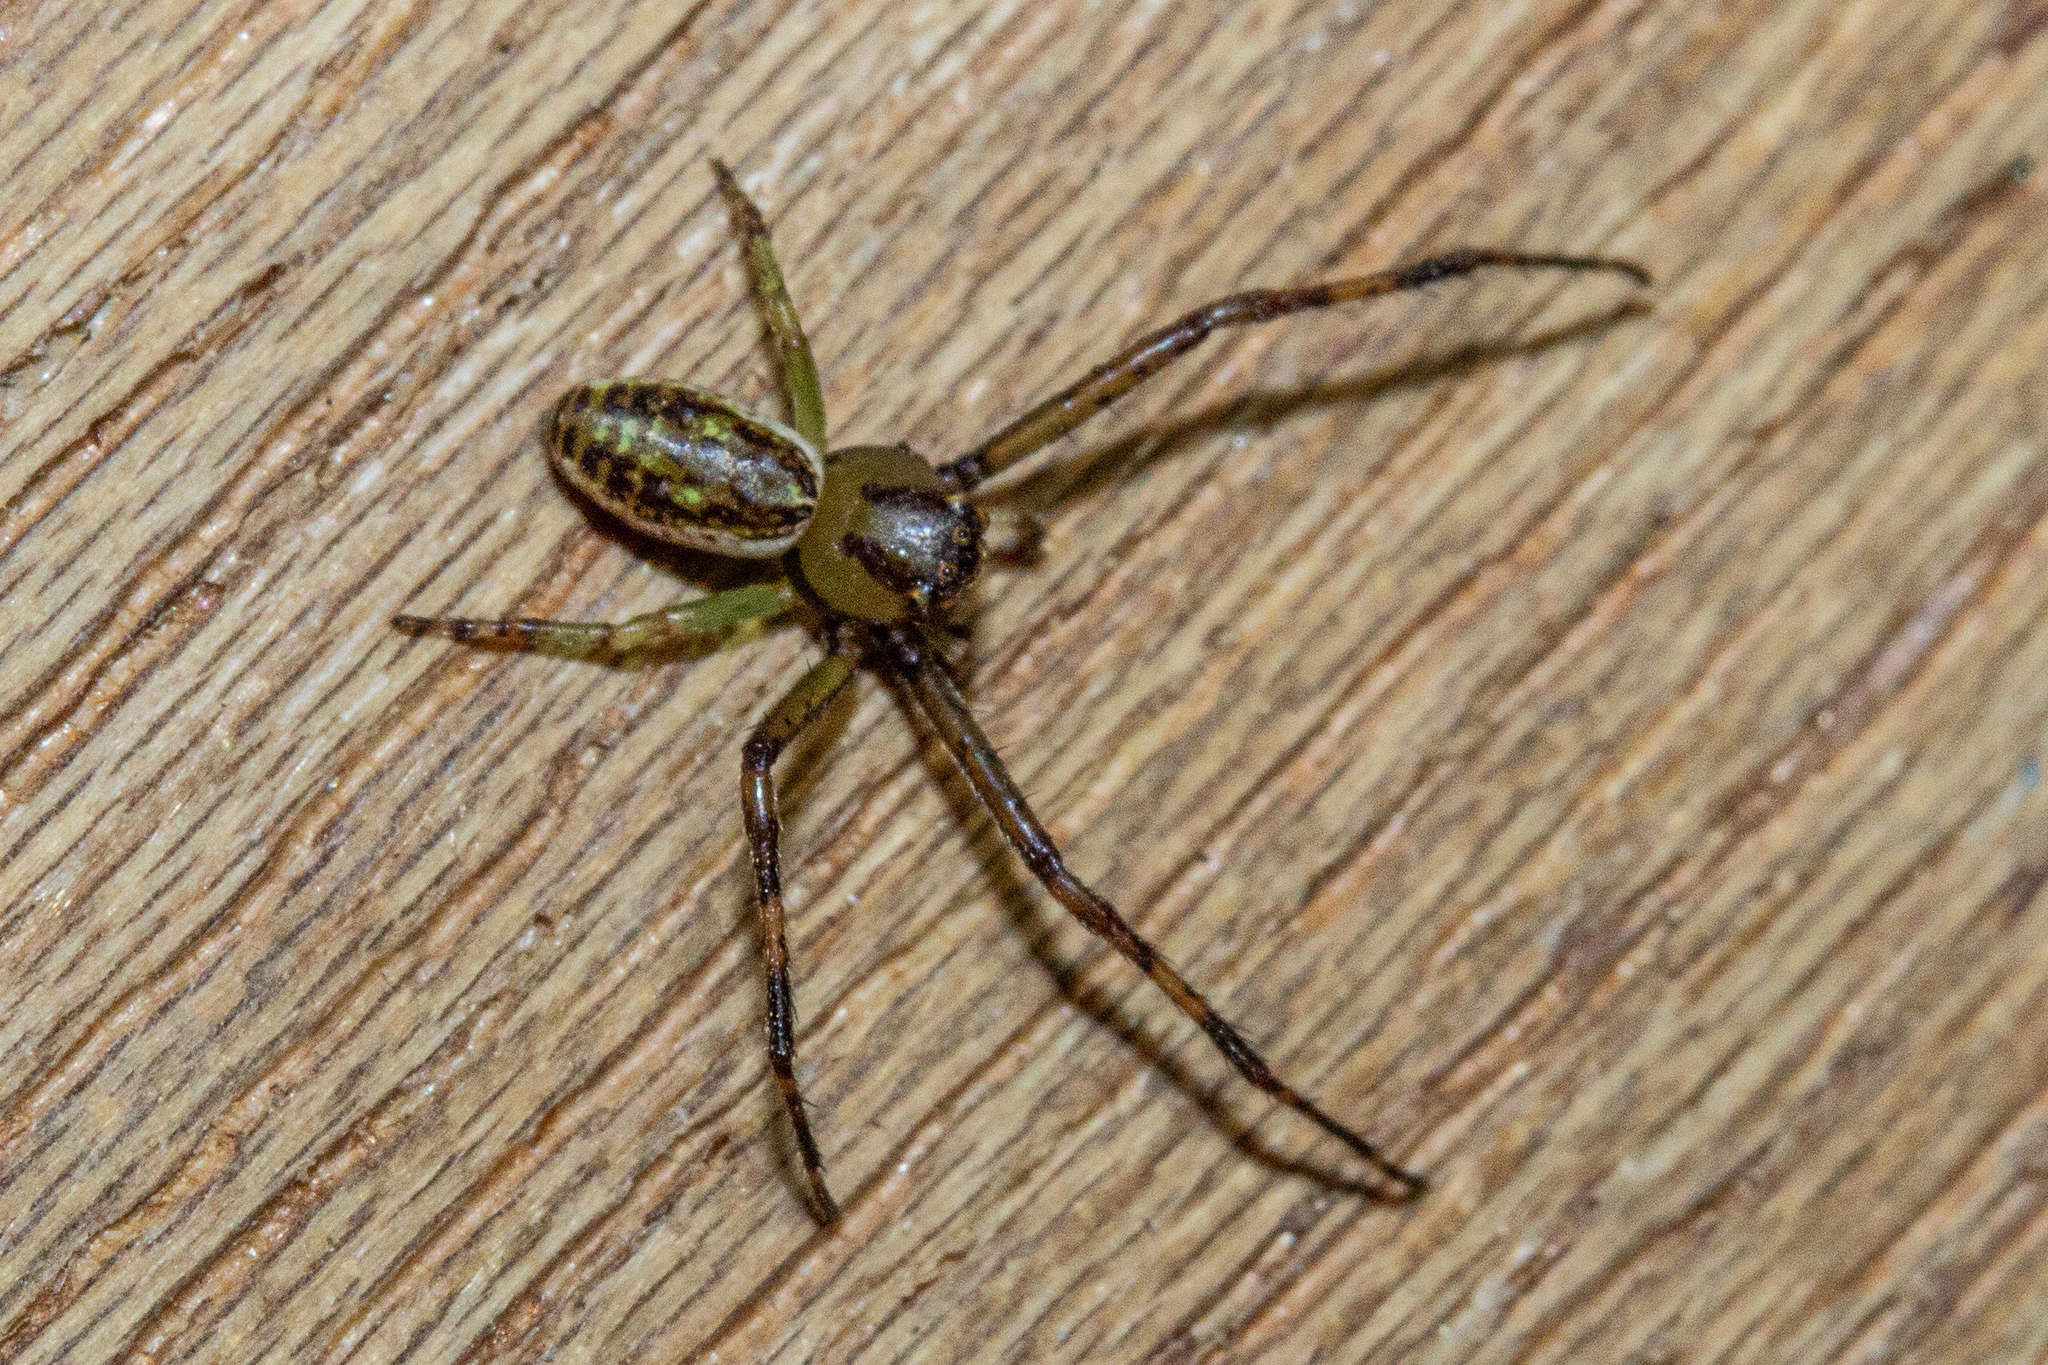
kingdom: Animalia
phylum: Arthropoda
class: Arachnida
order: Araneae
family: Thomisidae
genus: Diaea
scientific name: Diaea ambara
